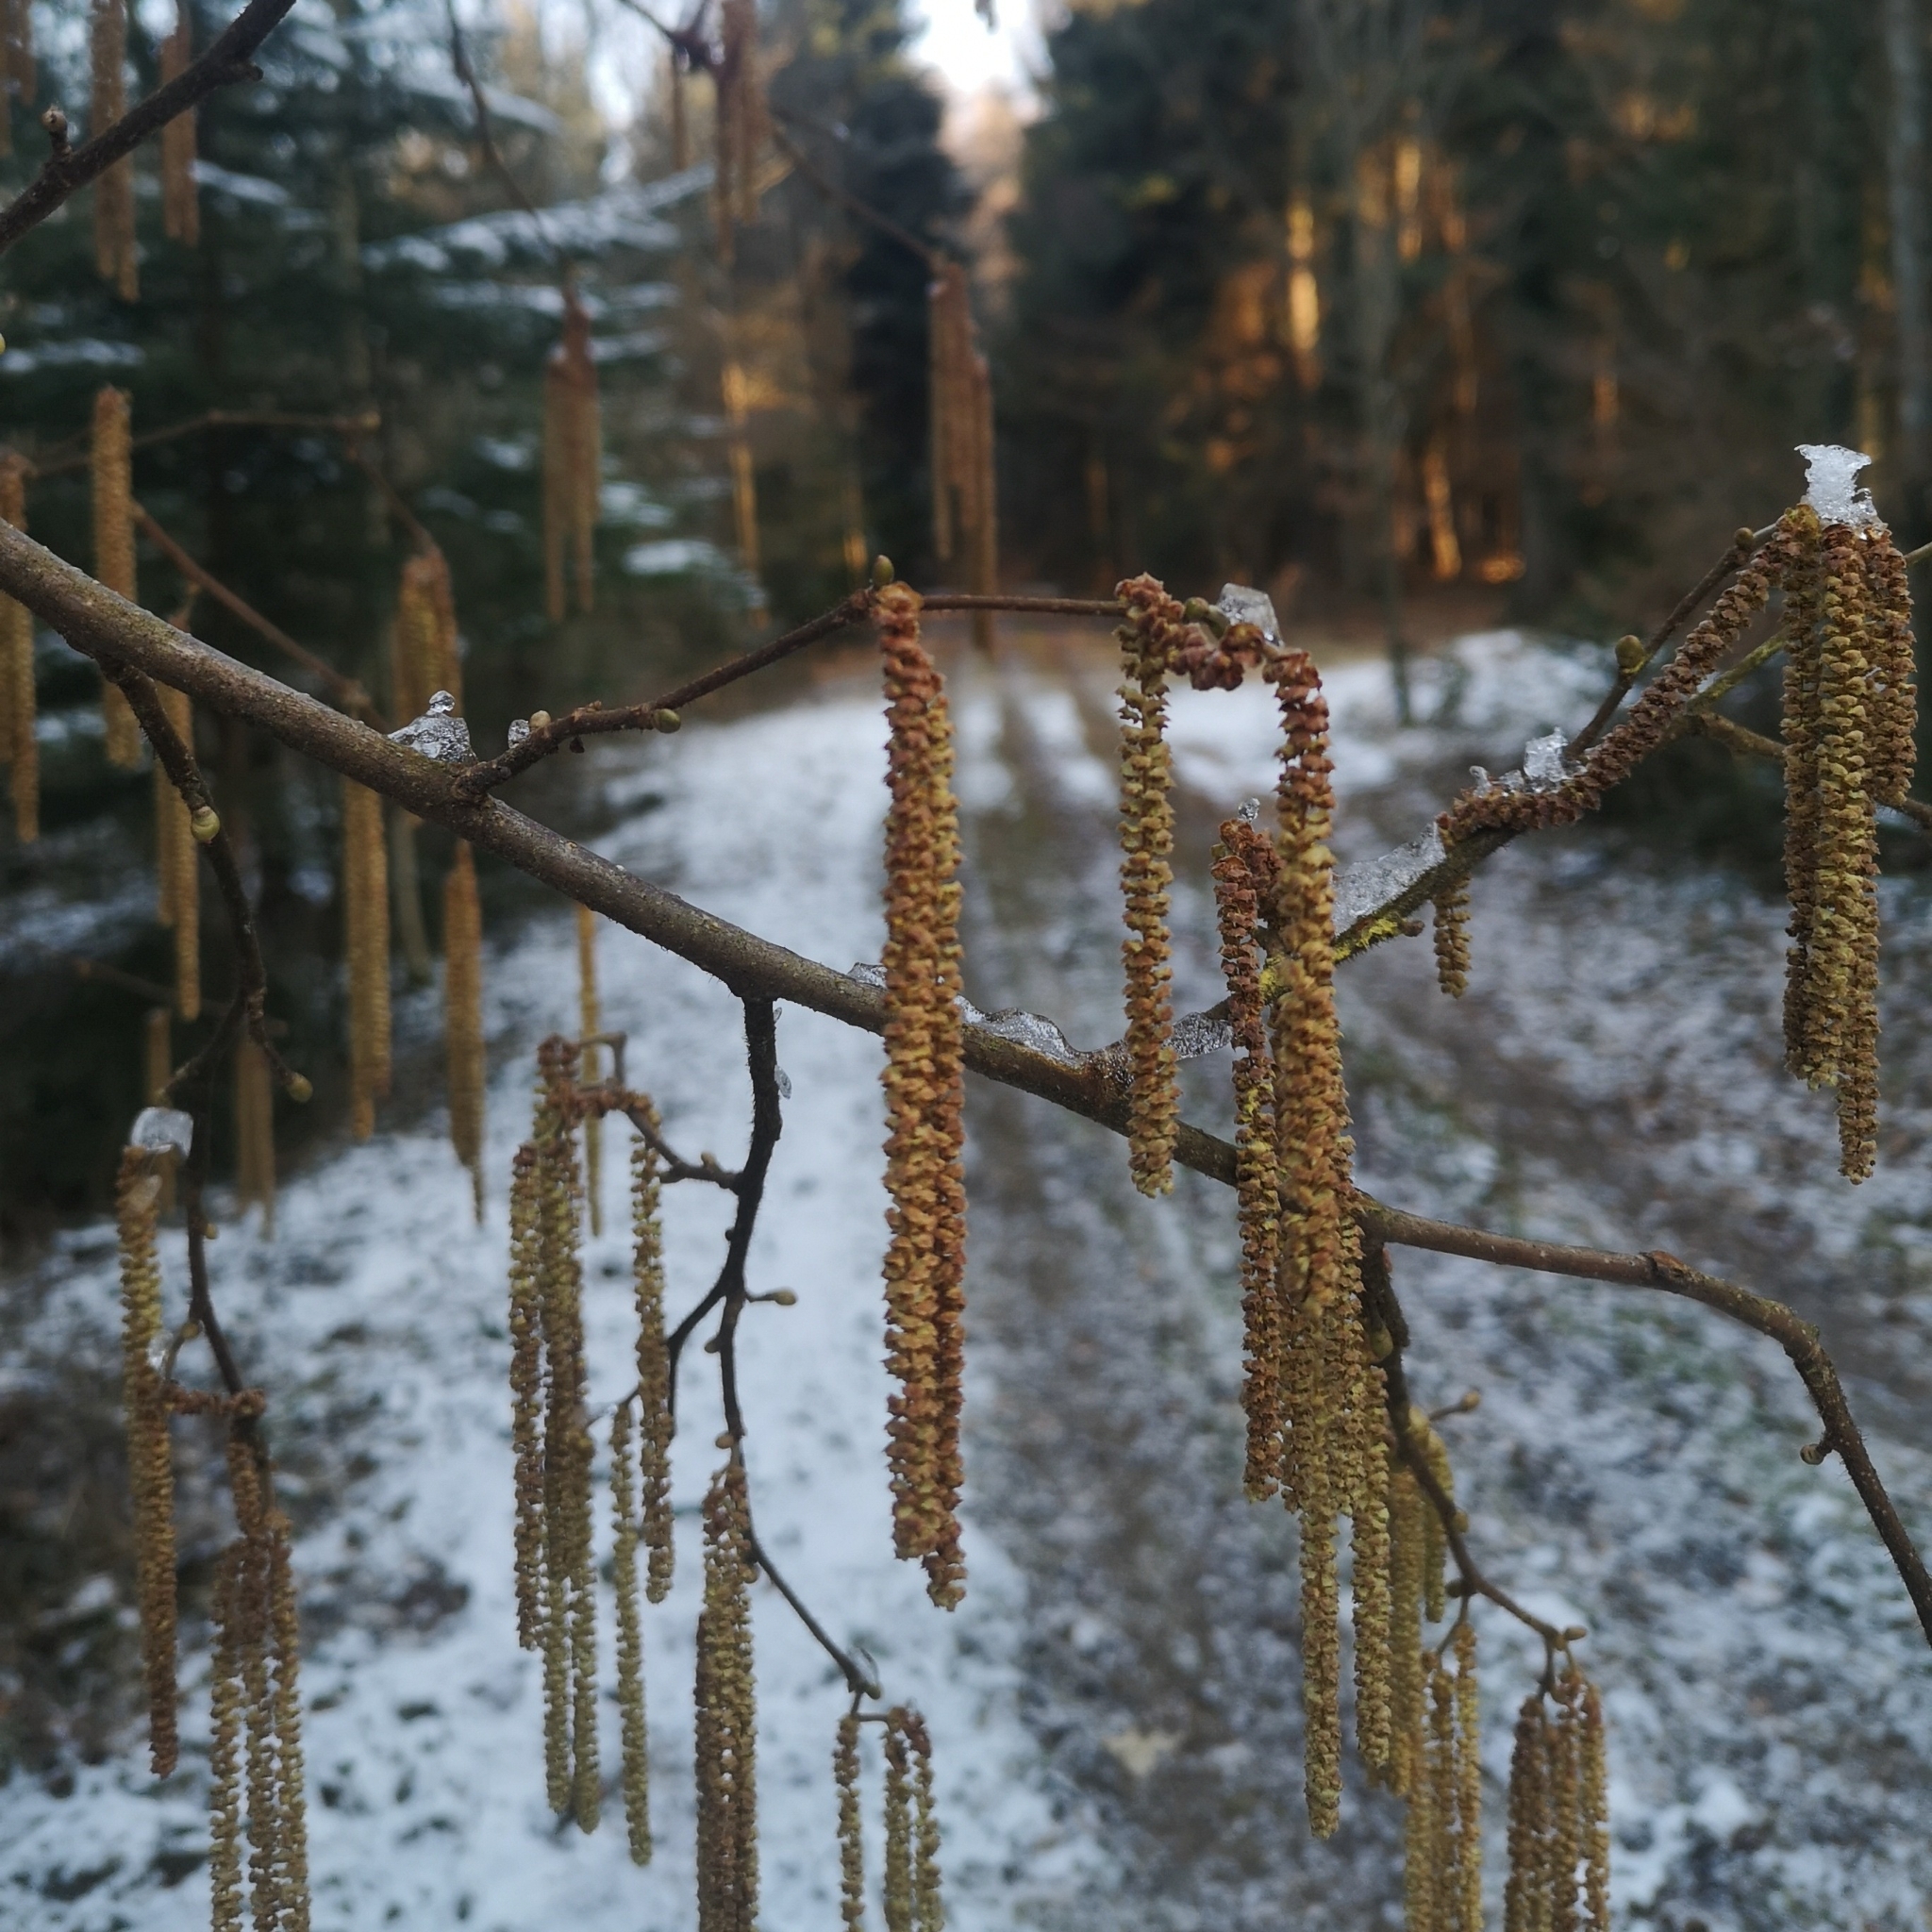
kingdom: Plantae
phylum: Tracheophyta
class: Magnoliopsida
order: Fagales
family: Betulaceae
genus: Corylus
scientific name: Corylus avellana
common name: European hazel
